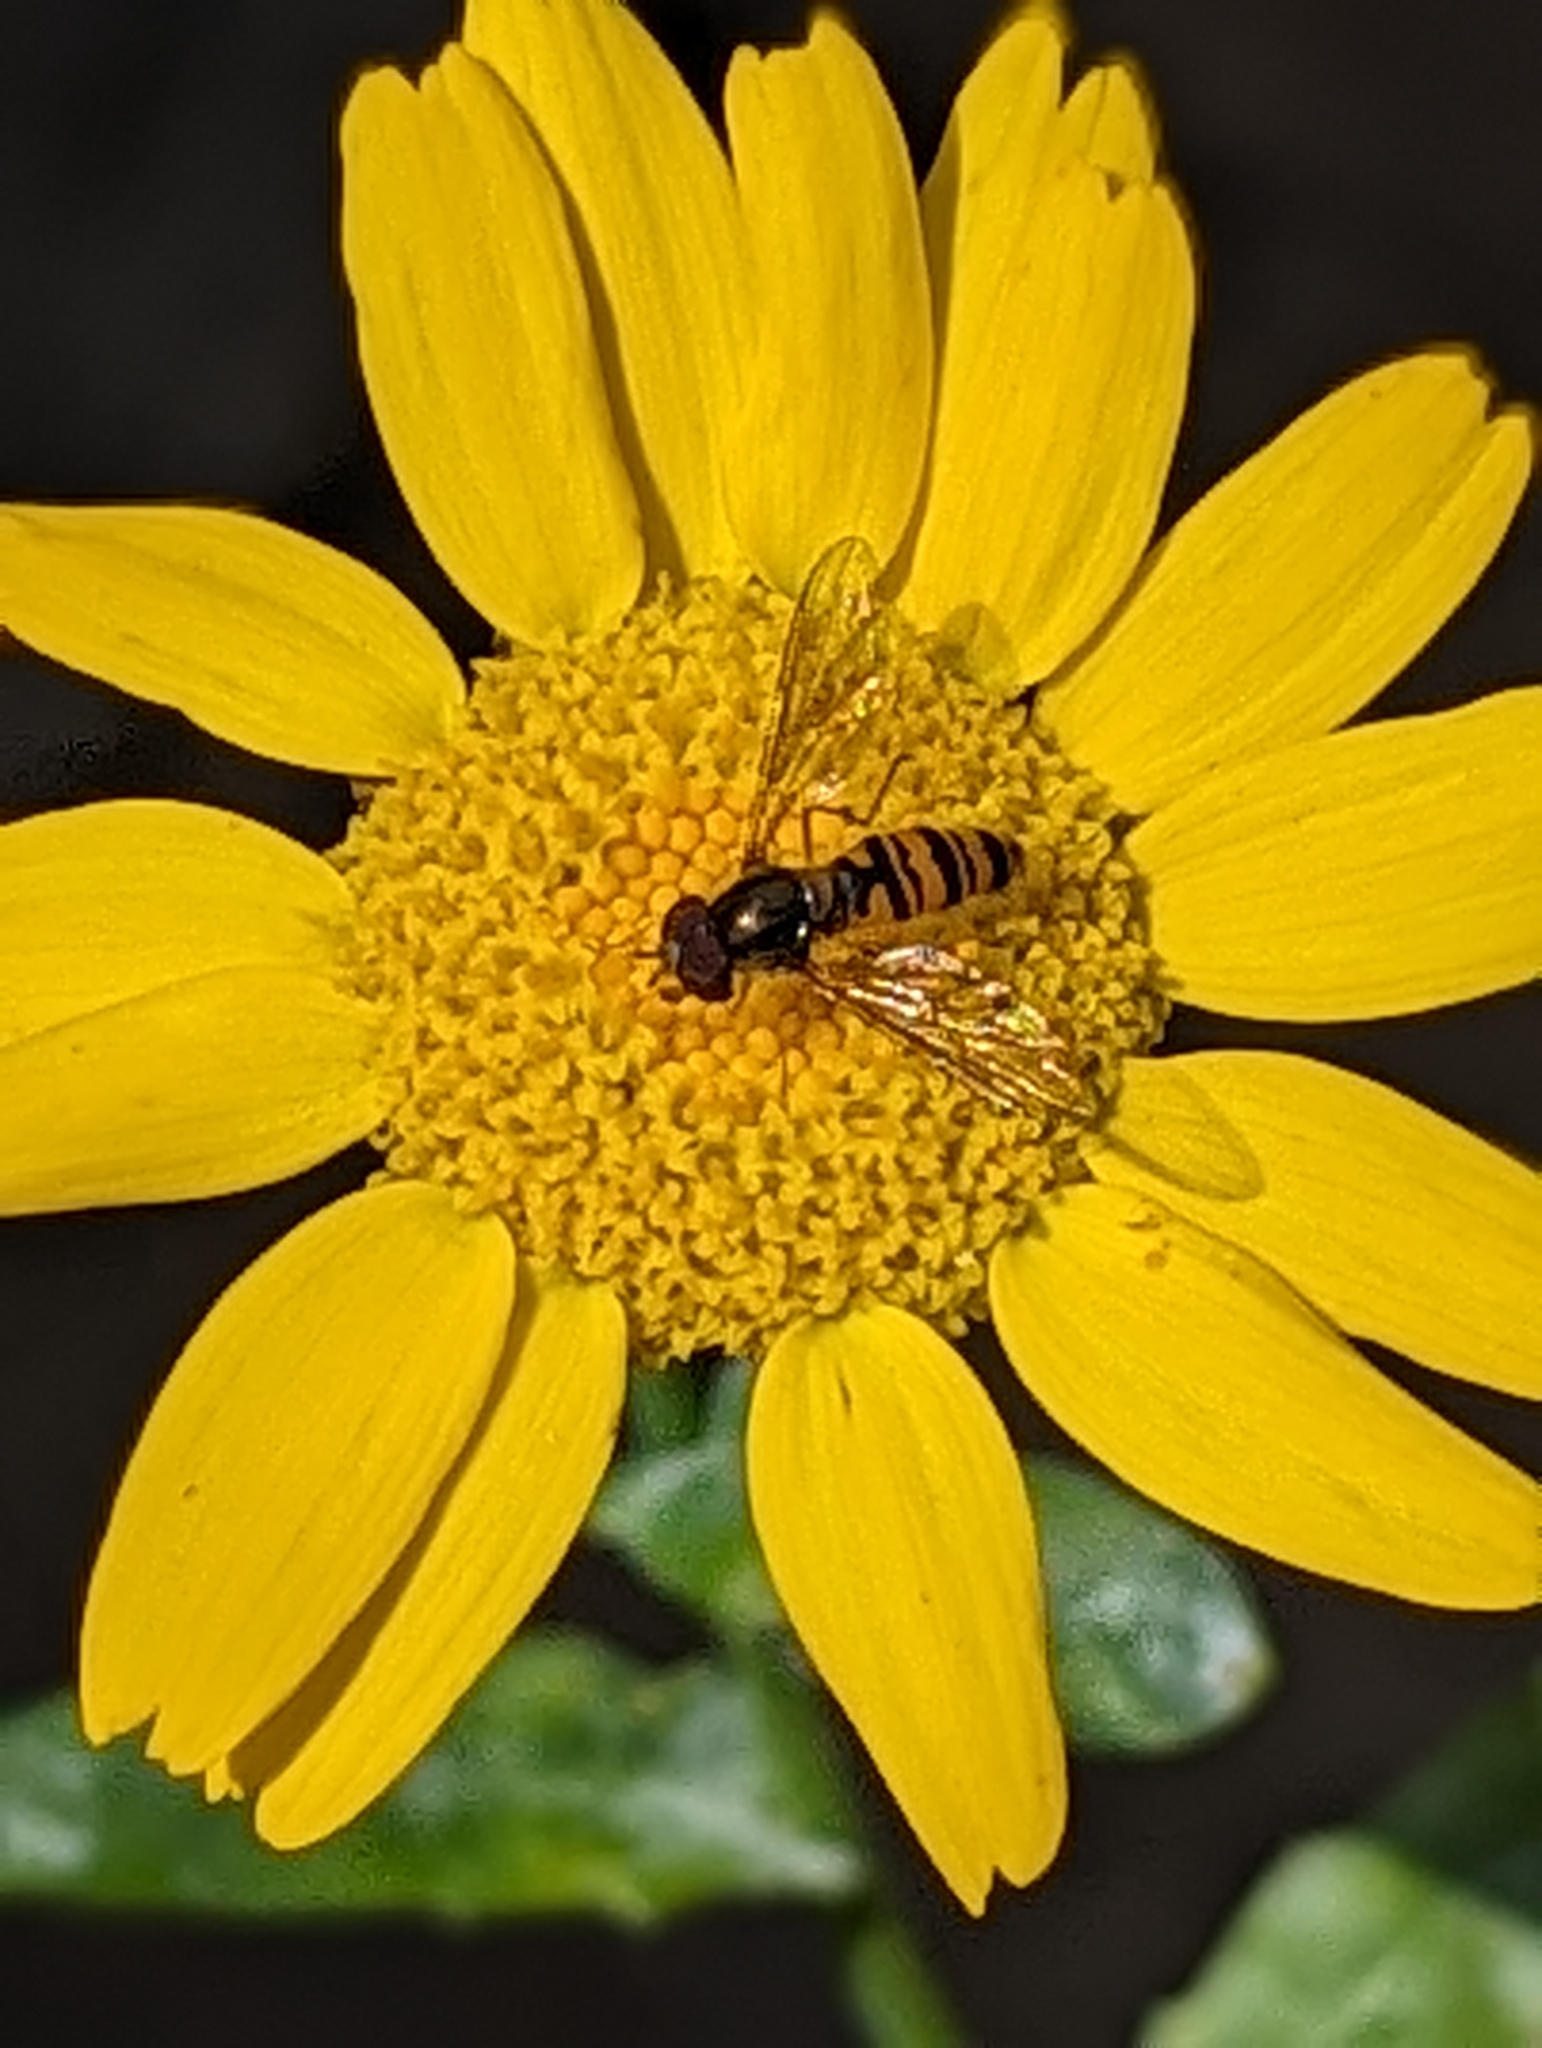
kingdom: Animalia
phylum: Arthropoda
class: Insecta
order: Diptera
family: Syrphidae
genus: Episyrphus
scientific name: Episyrphus balteatus
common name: Marmalade hoverfly
